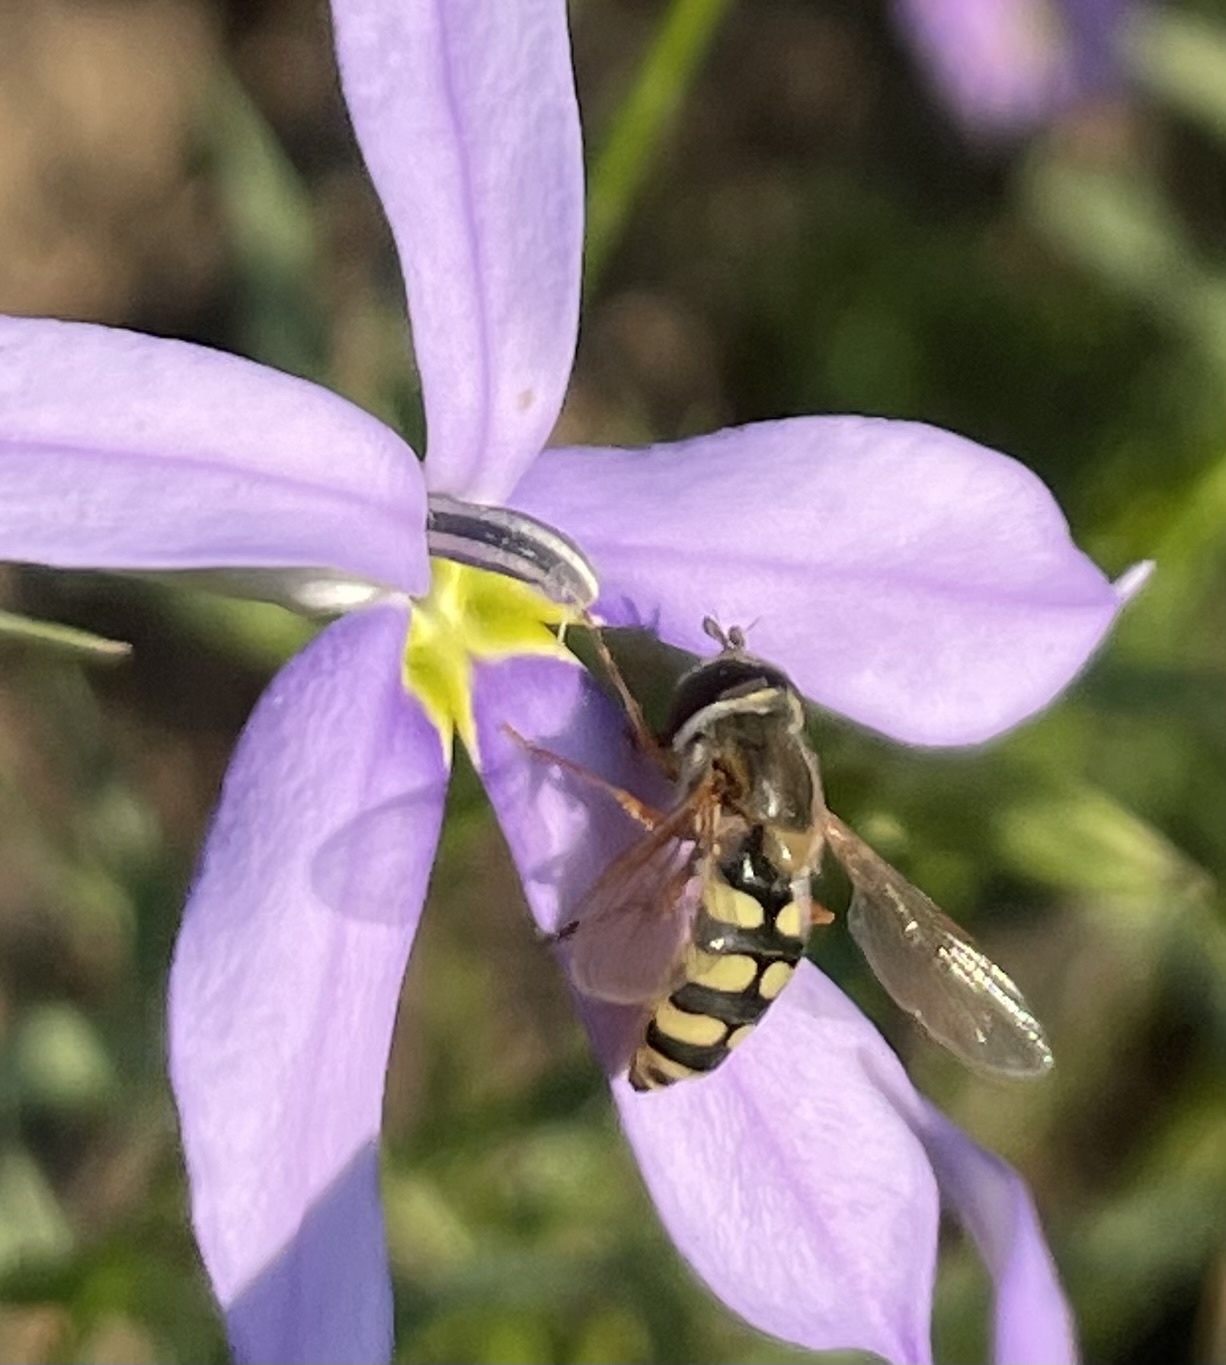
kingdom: Animalia
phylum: Arthropoda
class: Insecta
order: Diptera
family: Syrphidae
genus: Eupeodes
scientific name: Eupeodes corollae
